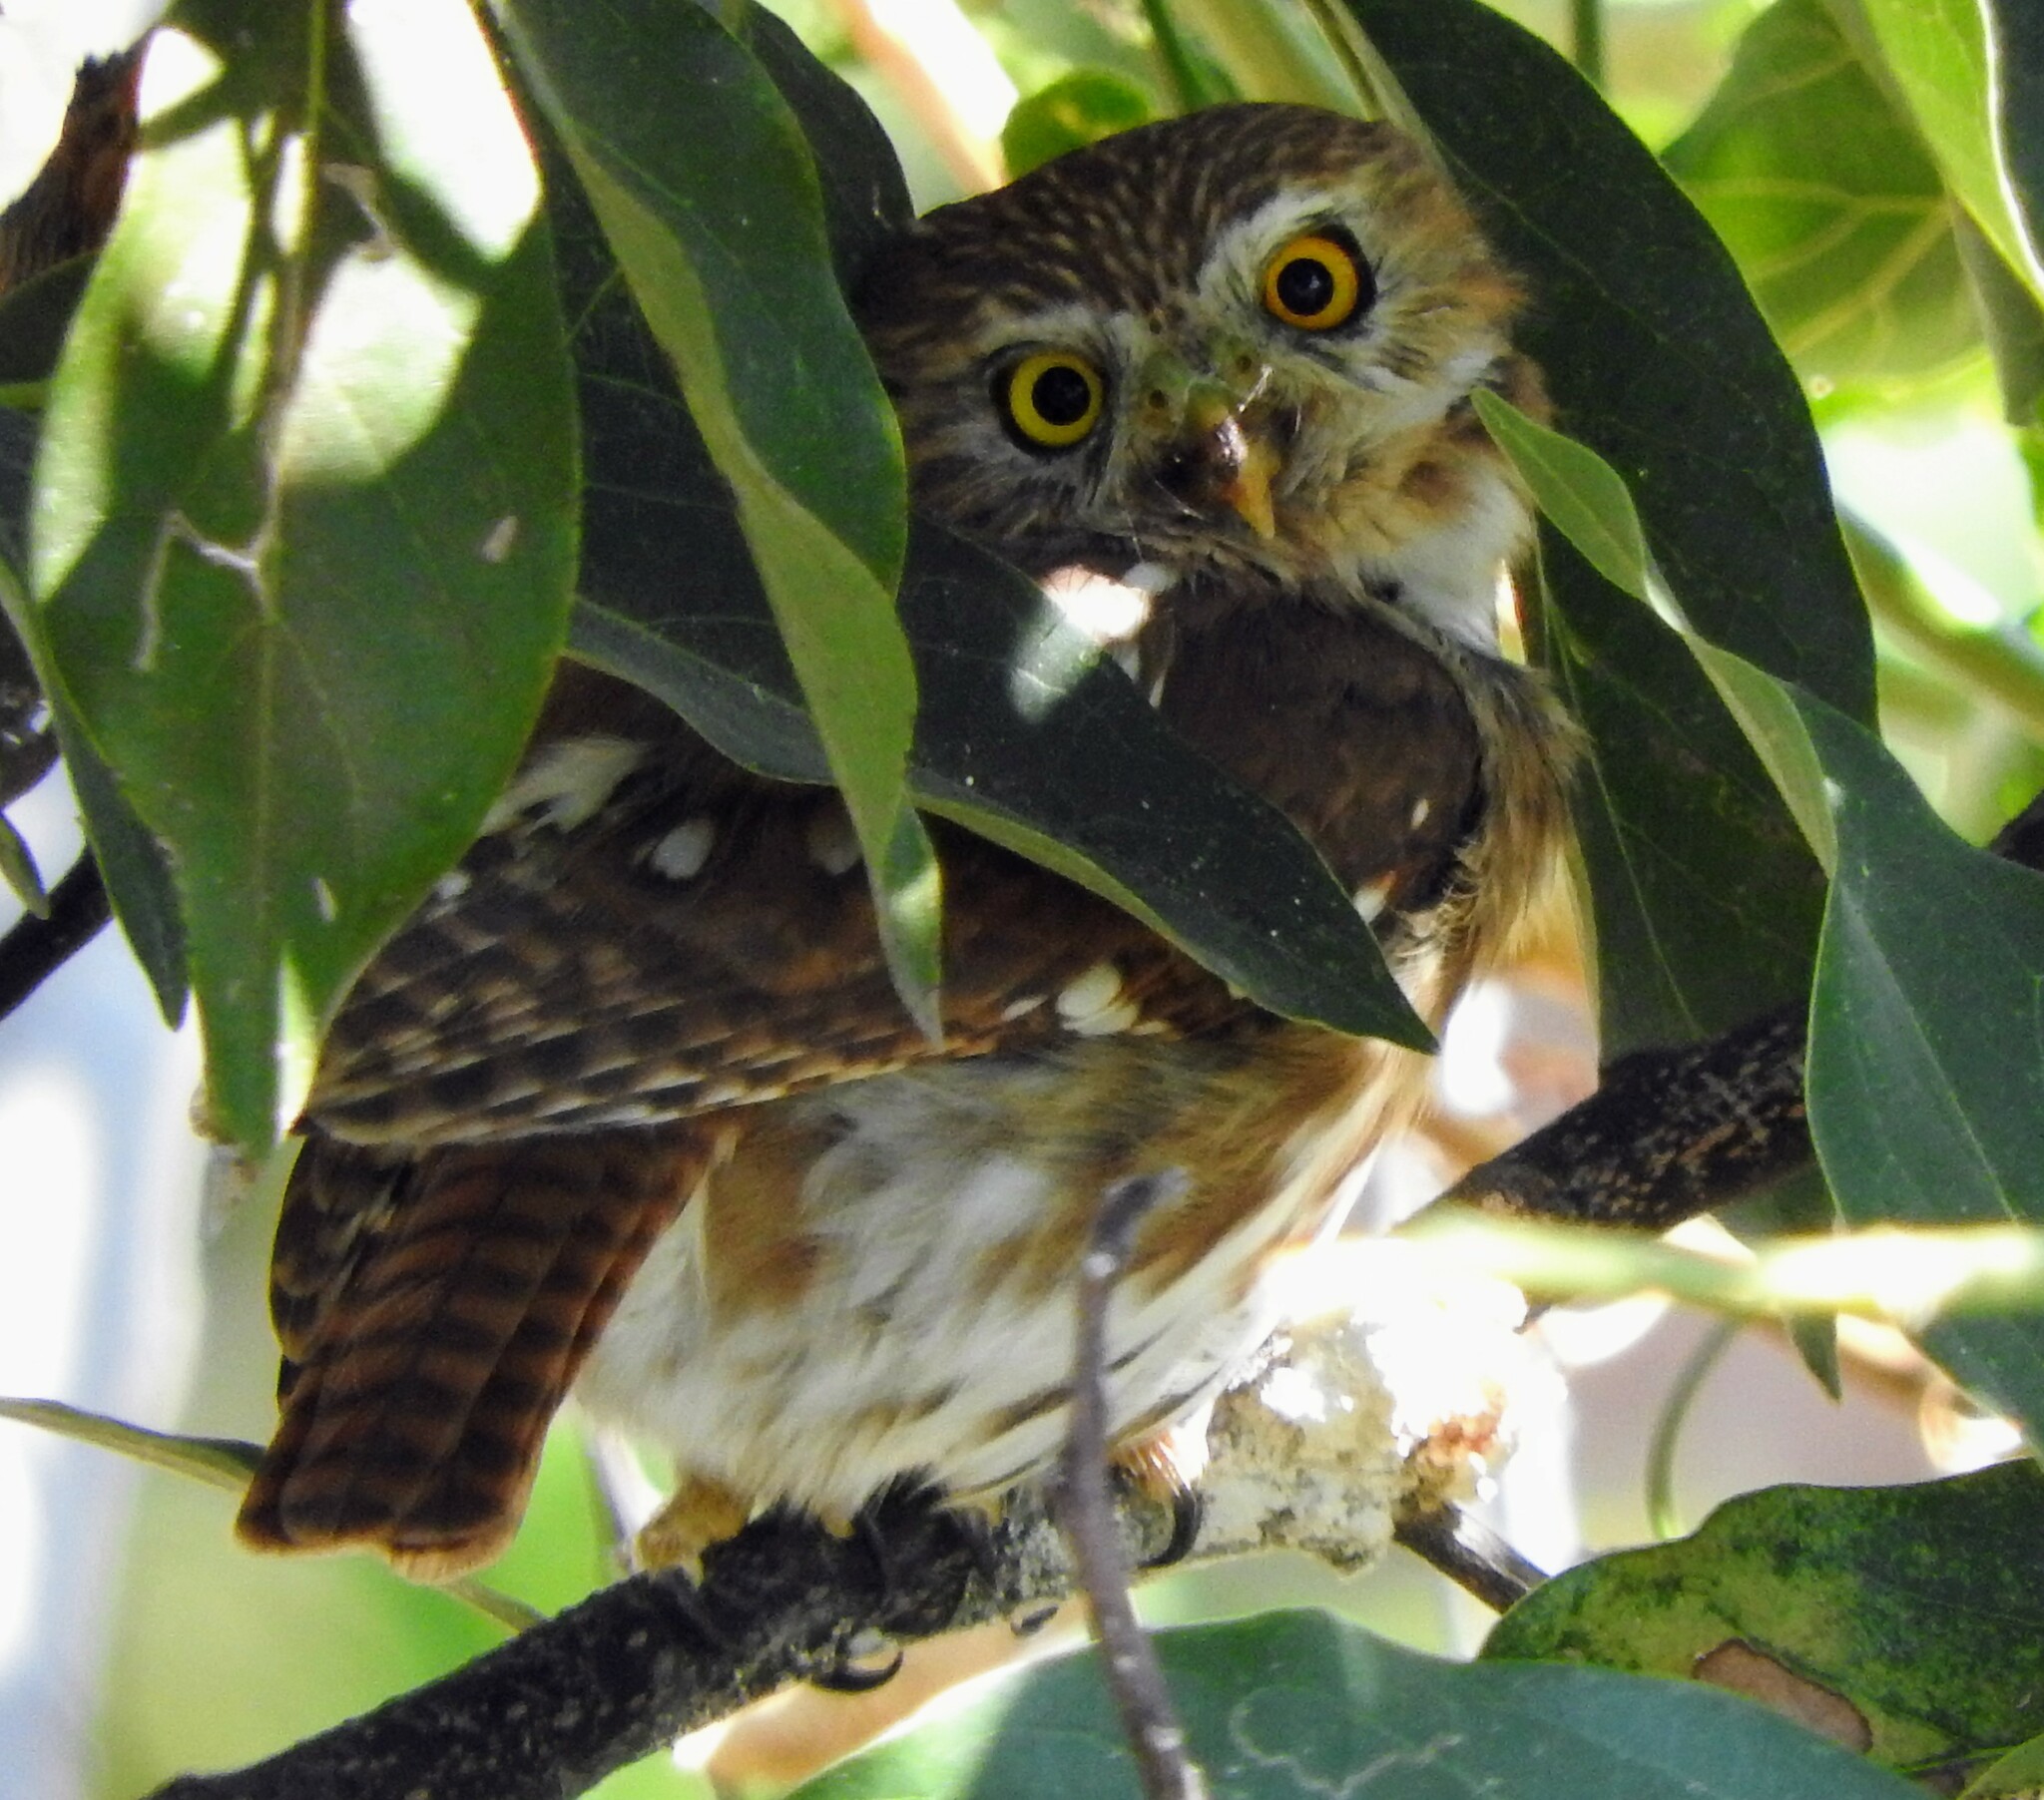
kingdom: Animalia
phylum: Chordata
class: Aves
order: Strigiformes
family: Strigidae
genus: Glaucidium
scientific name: Glaucidium brasilianum
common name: Ferruginous pygmy-owl
